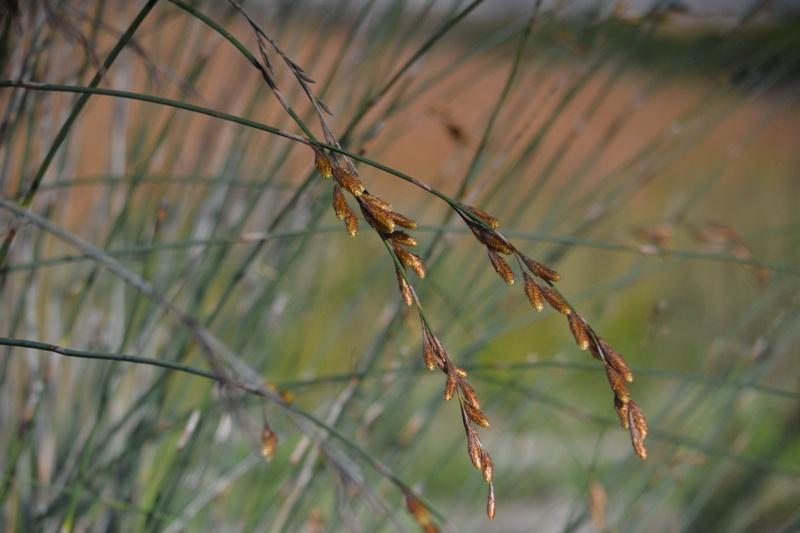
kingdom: Plantae
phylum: Tracheophyta
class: Liliopsida
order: Poales
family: Restionaceae
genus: Thamnochortus
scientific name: Thamnochortus spicigerus
